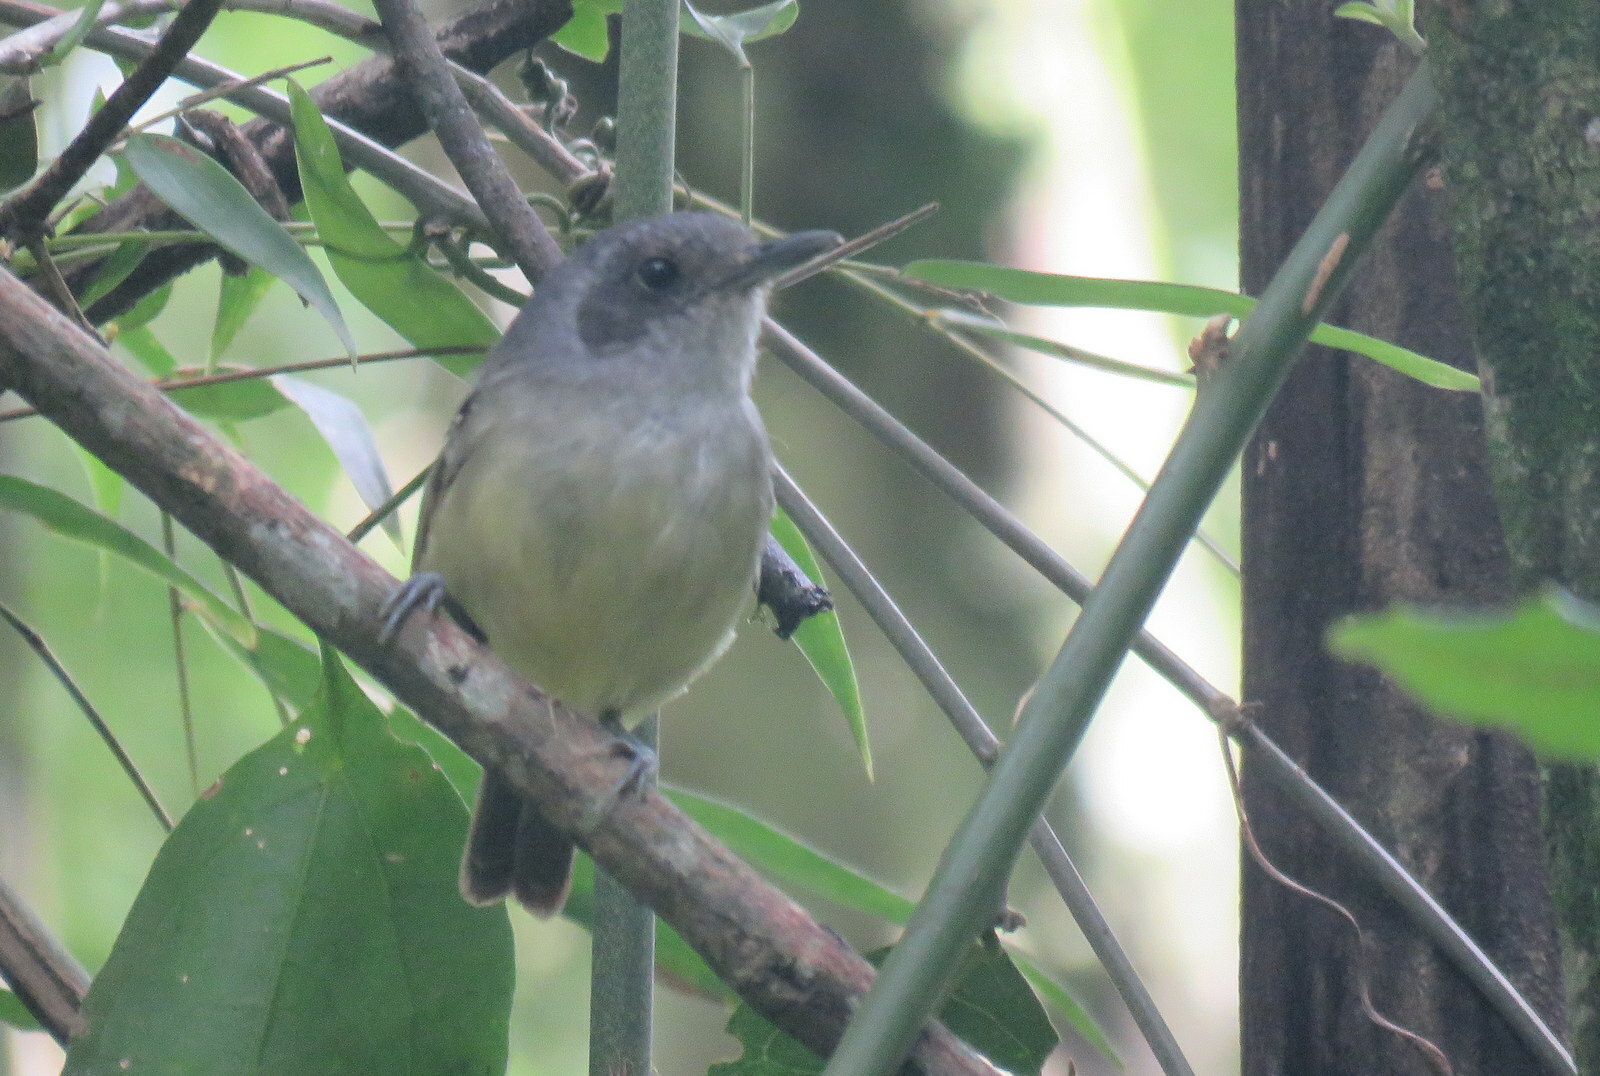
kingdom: Animalia
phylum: Chordata
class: Aves
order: Passeriformes
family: Thamnophilidae
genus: Dysithamnus
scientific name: Dysithamnus mentalis
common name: Plain antvireo
